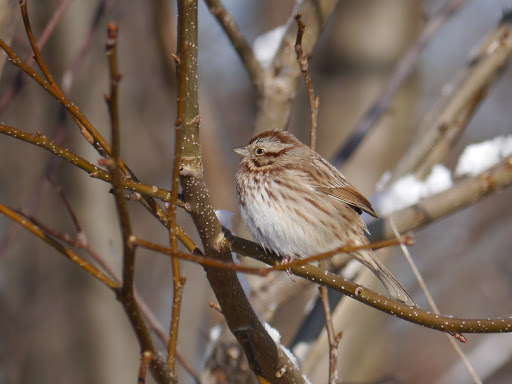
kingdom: Animalia
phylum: Chordata
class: Aves
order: Passeriformes
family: Passerellidae
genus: Melospiza
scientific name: Melospiza melodia
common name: Song sparrow
